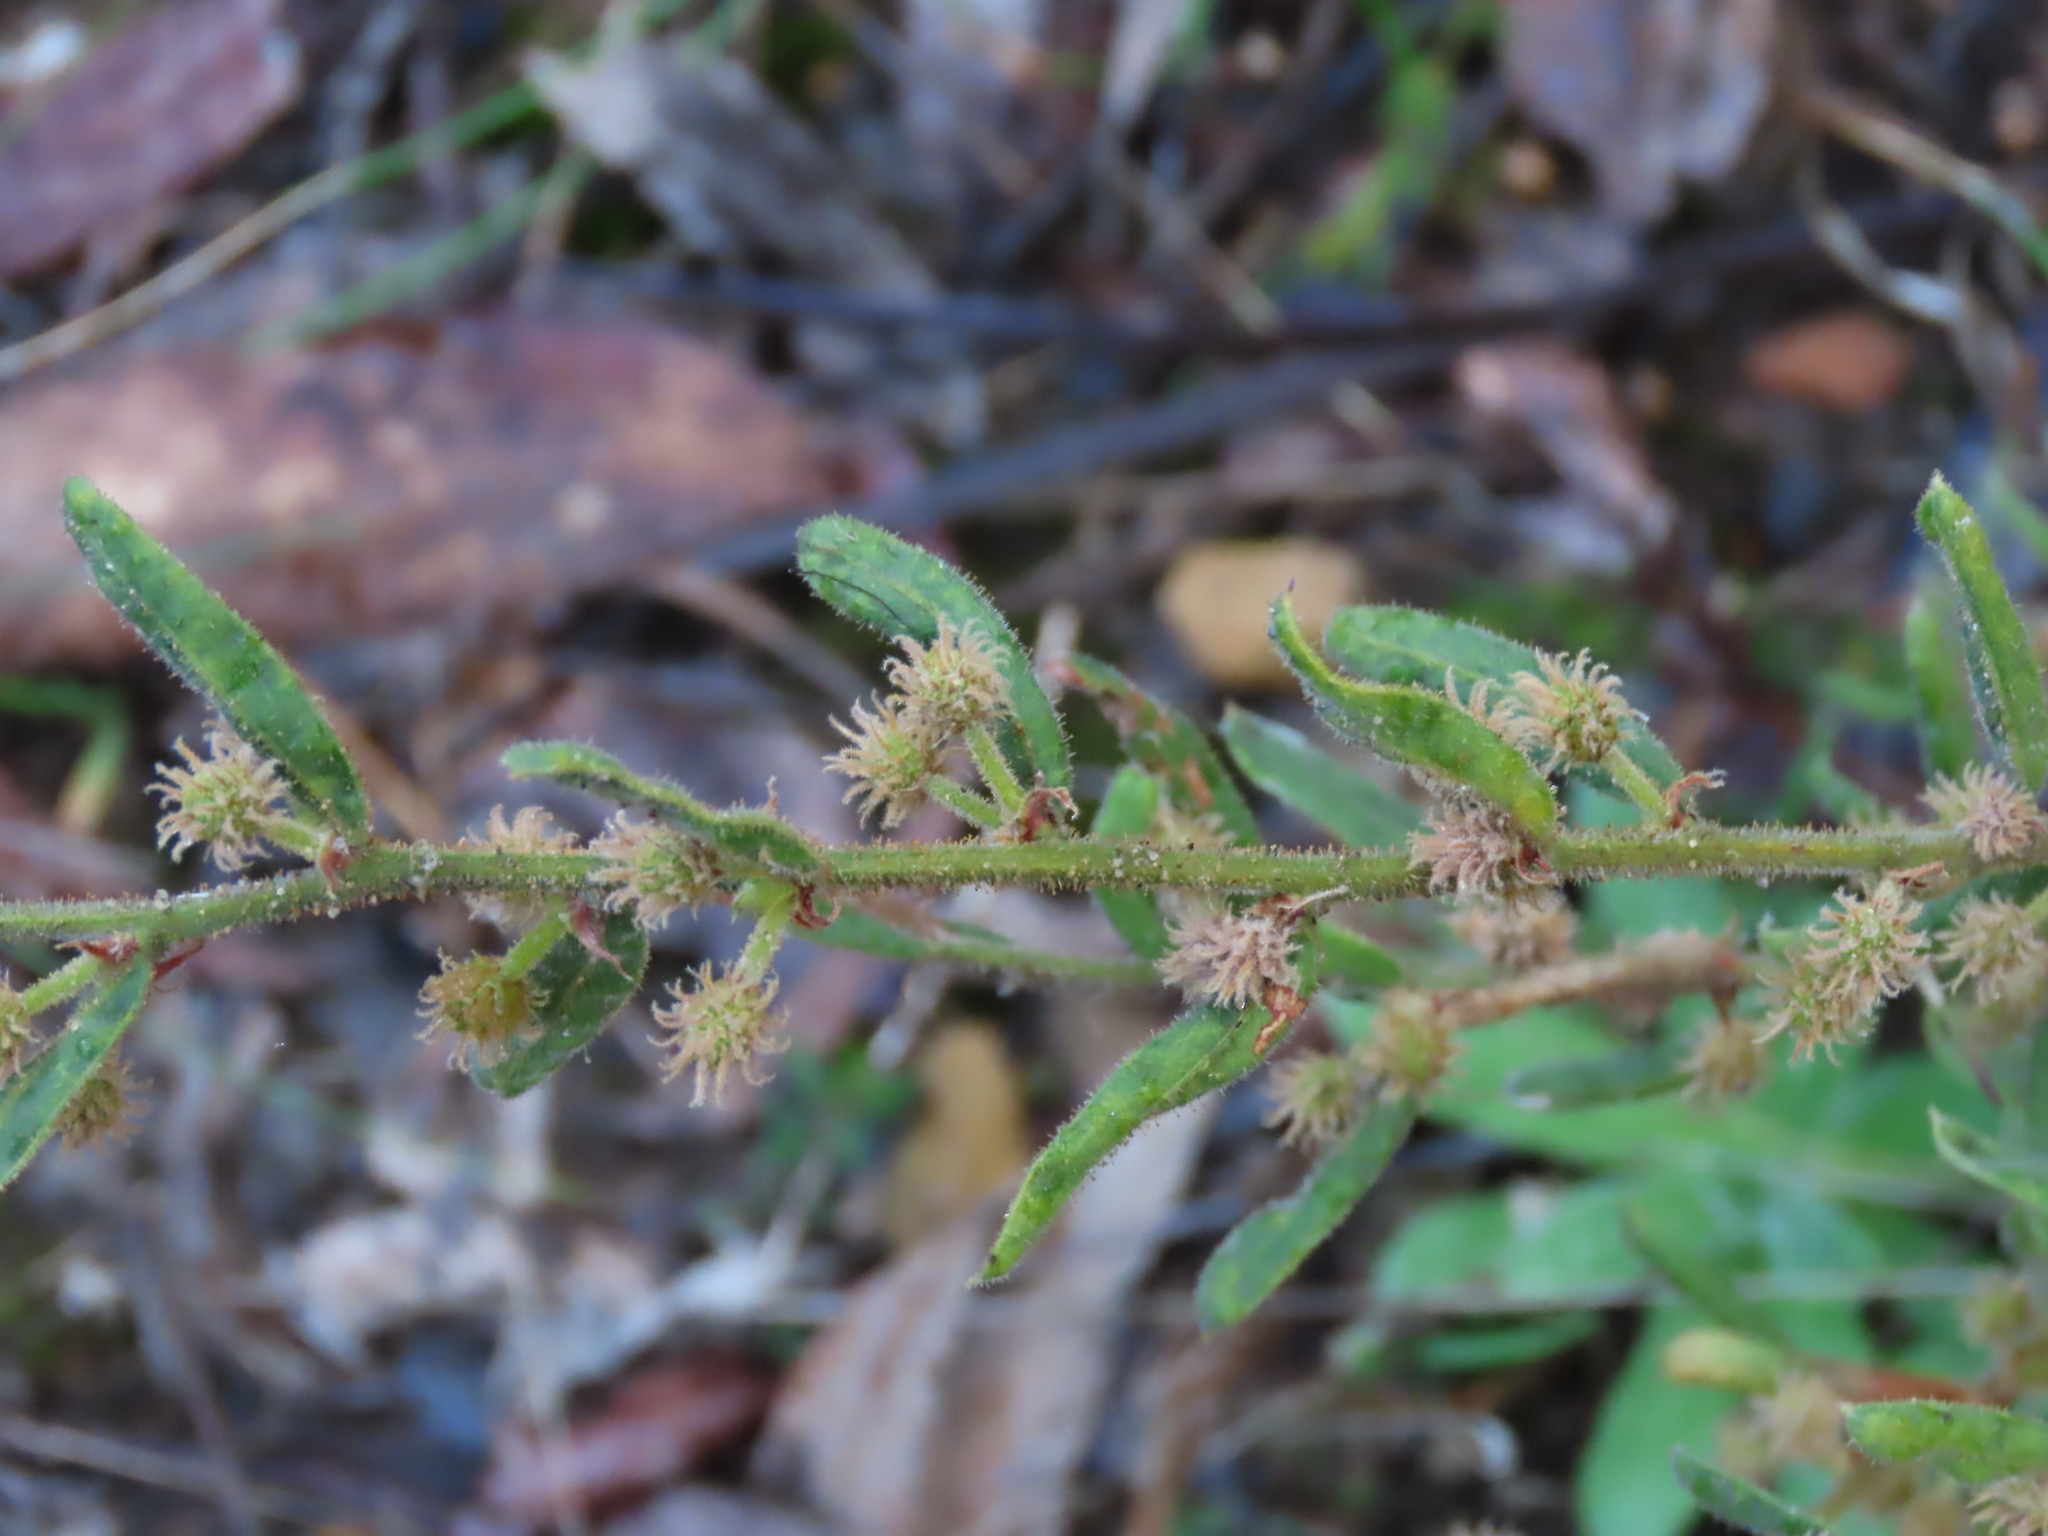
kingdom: Plantae
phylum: Tracheophyta
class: Magnoliopsida
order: Fabales
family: Fabaceae
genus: Acacia
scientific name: Acacia aspera
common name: Rough wattle
